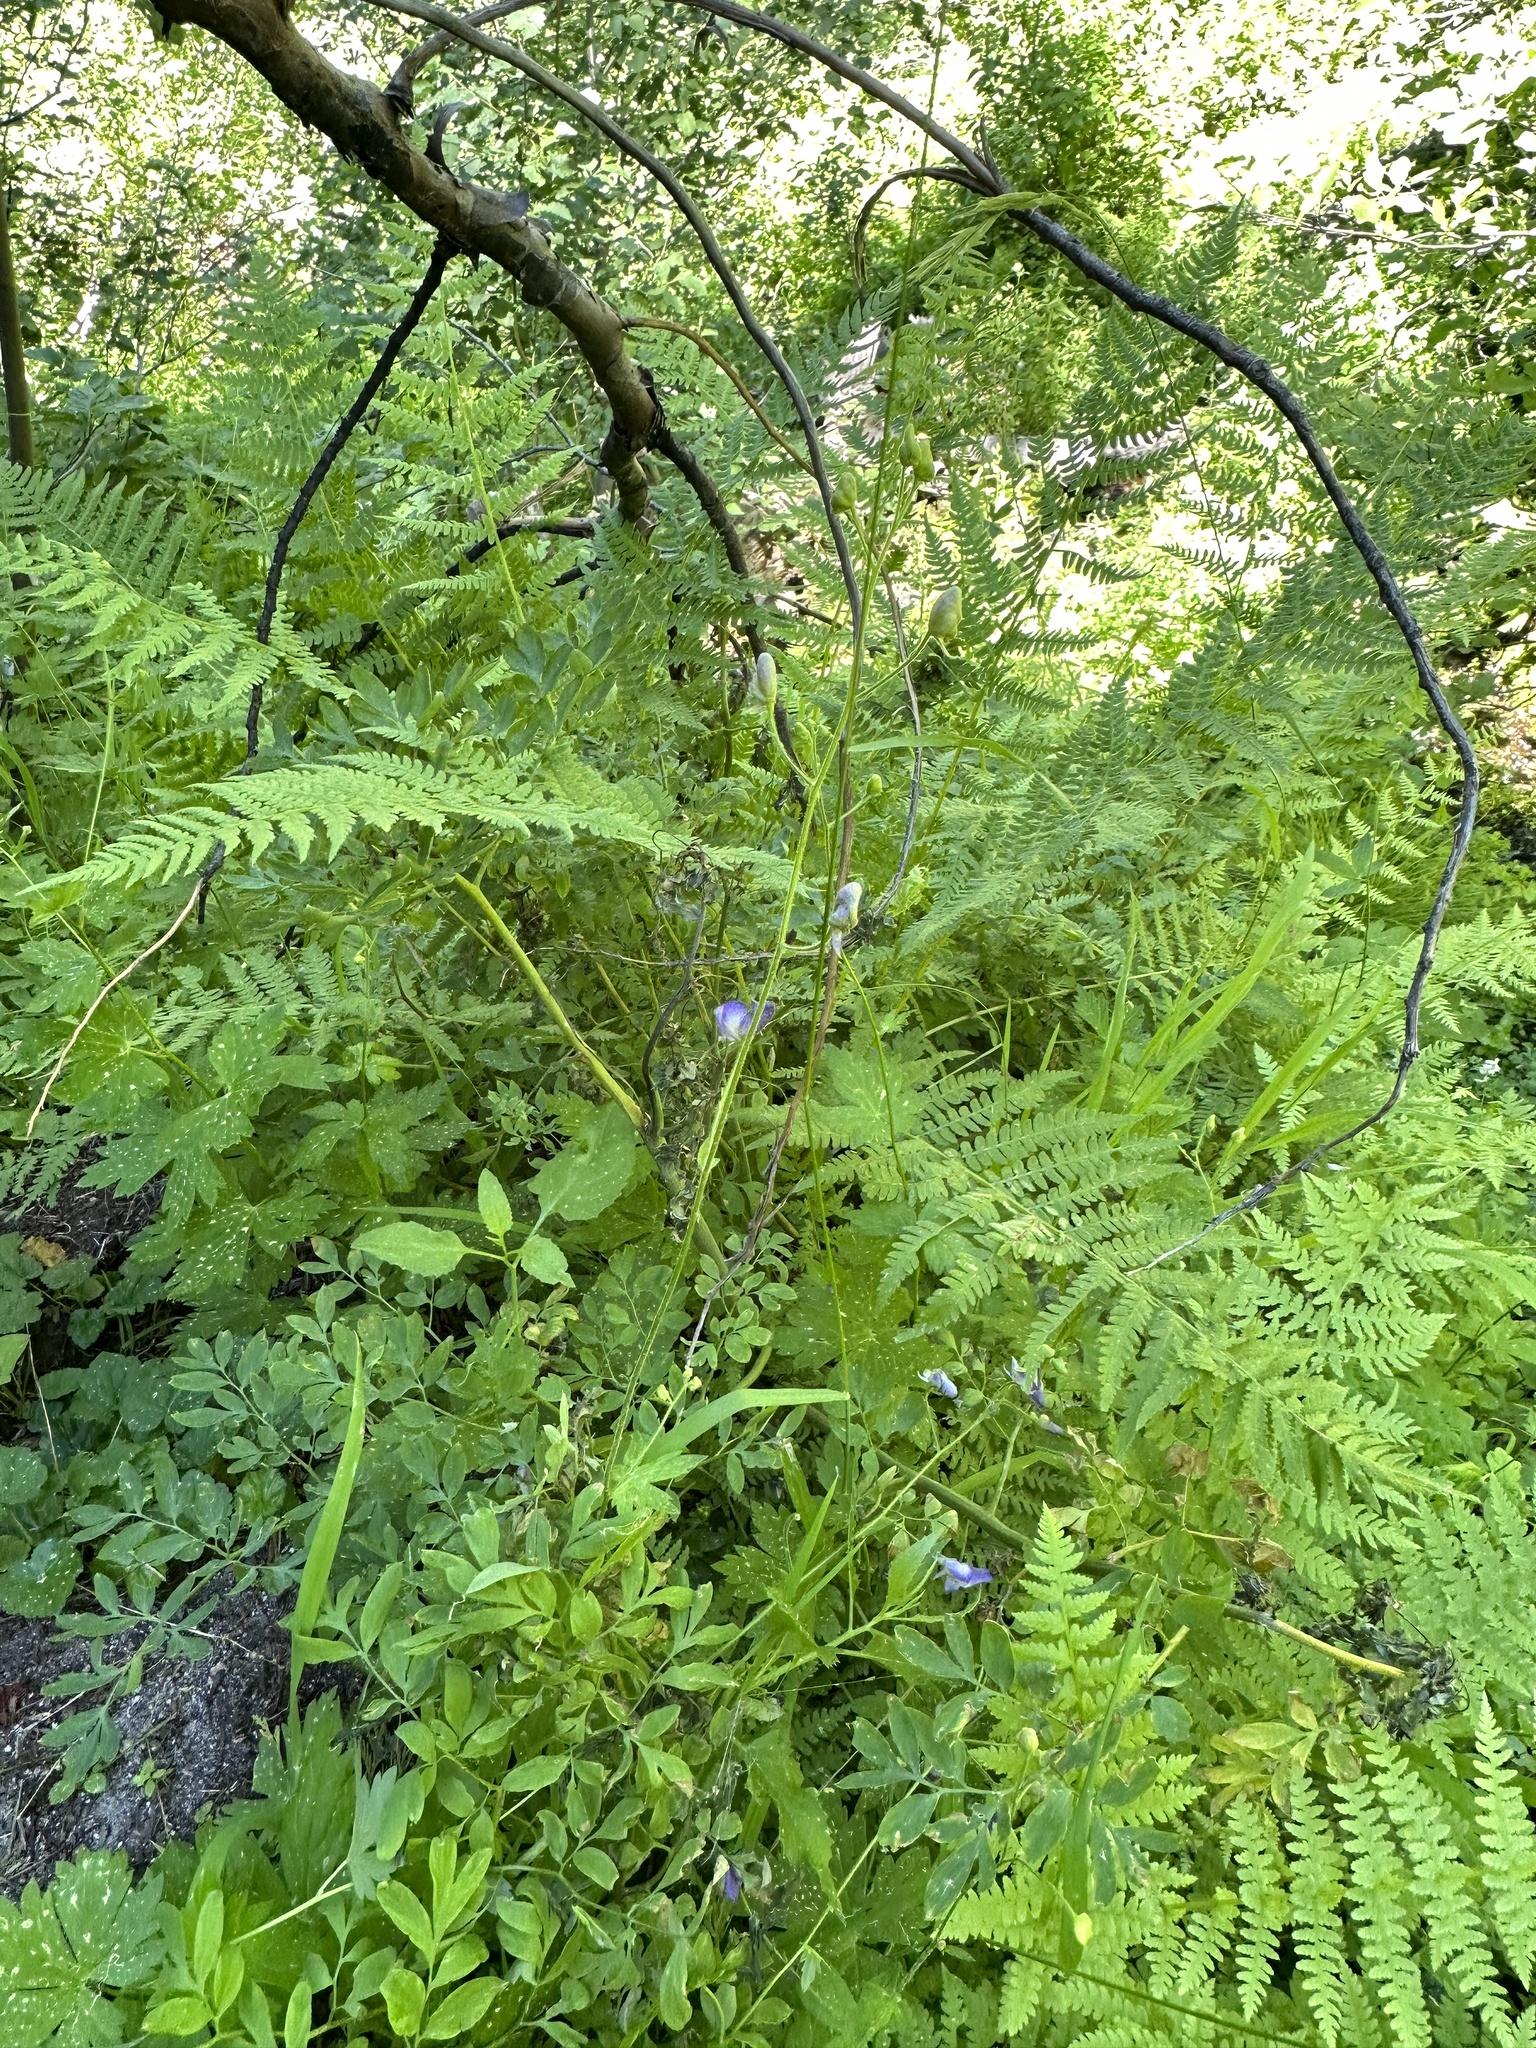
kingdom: Plantae
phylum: Tracheophyta
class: Magnoliopsida
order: Ranunculales
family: Ranunculaceae
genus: Aconitum
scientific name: Aconitum columbianum
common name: Columbia aconite
